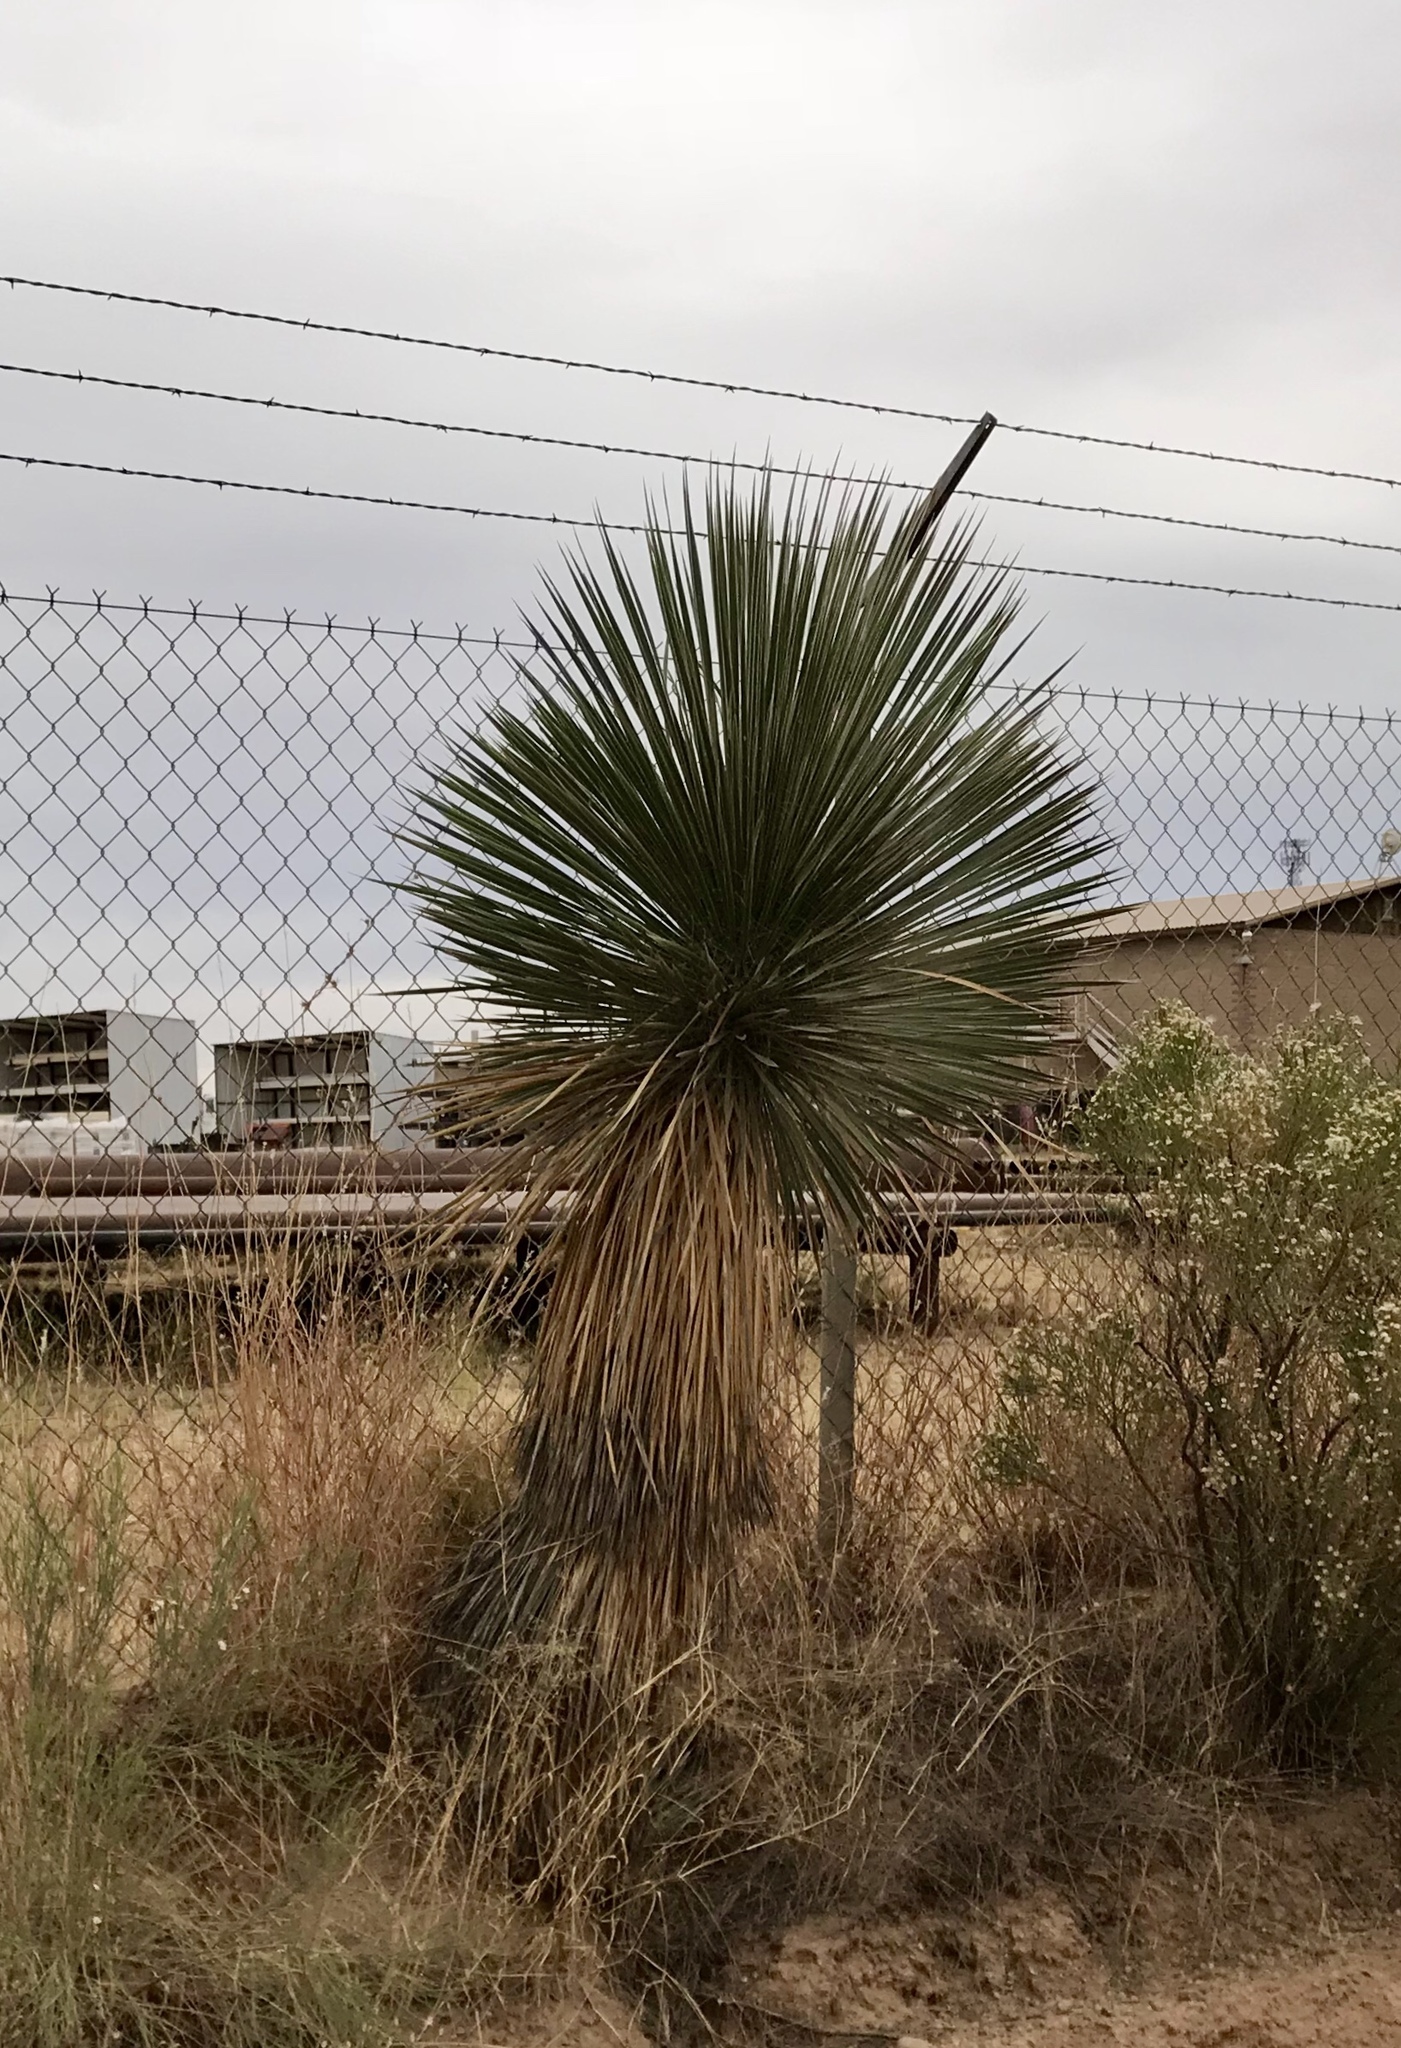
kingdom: Plantae
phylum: Tracheophyta
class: Liliopsida
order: Asparagales
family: Asparagaceae
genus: Yucca
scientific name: Yucca elata
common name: Palmella
